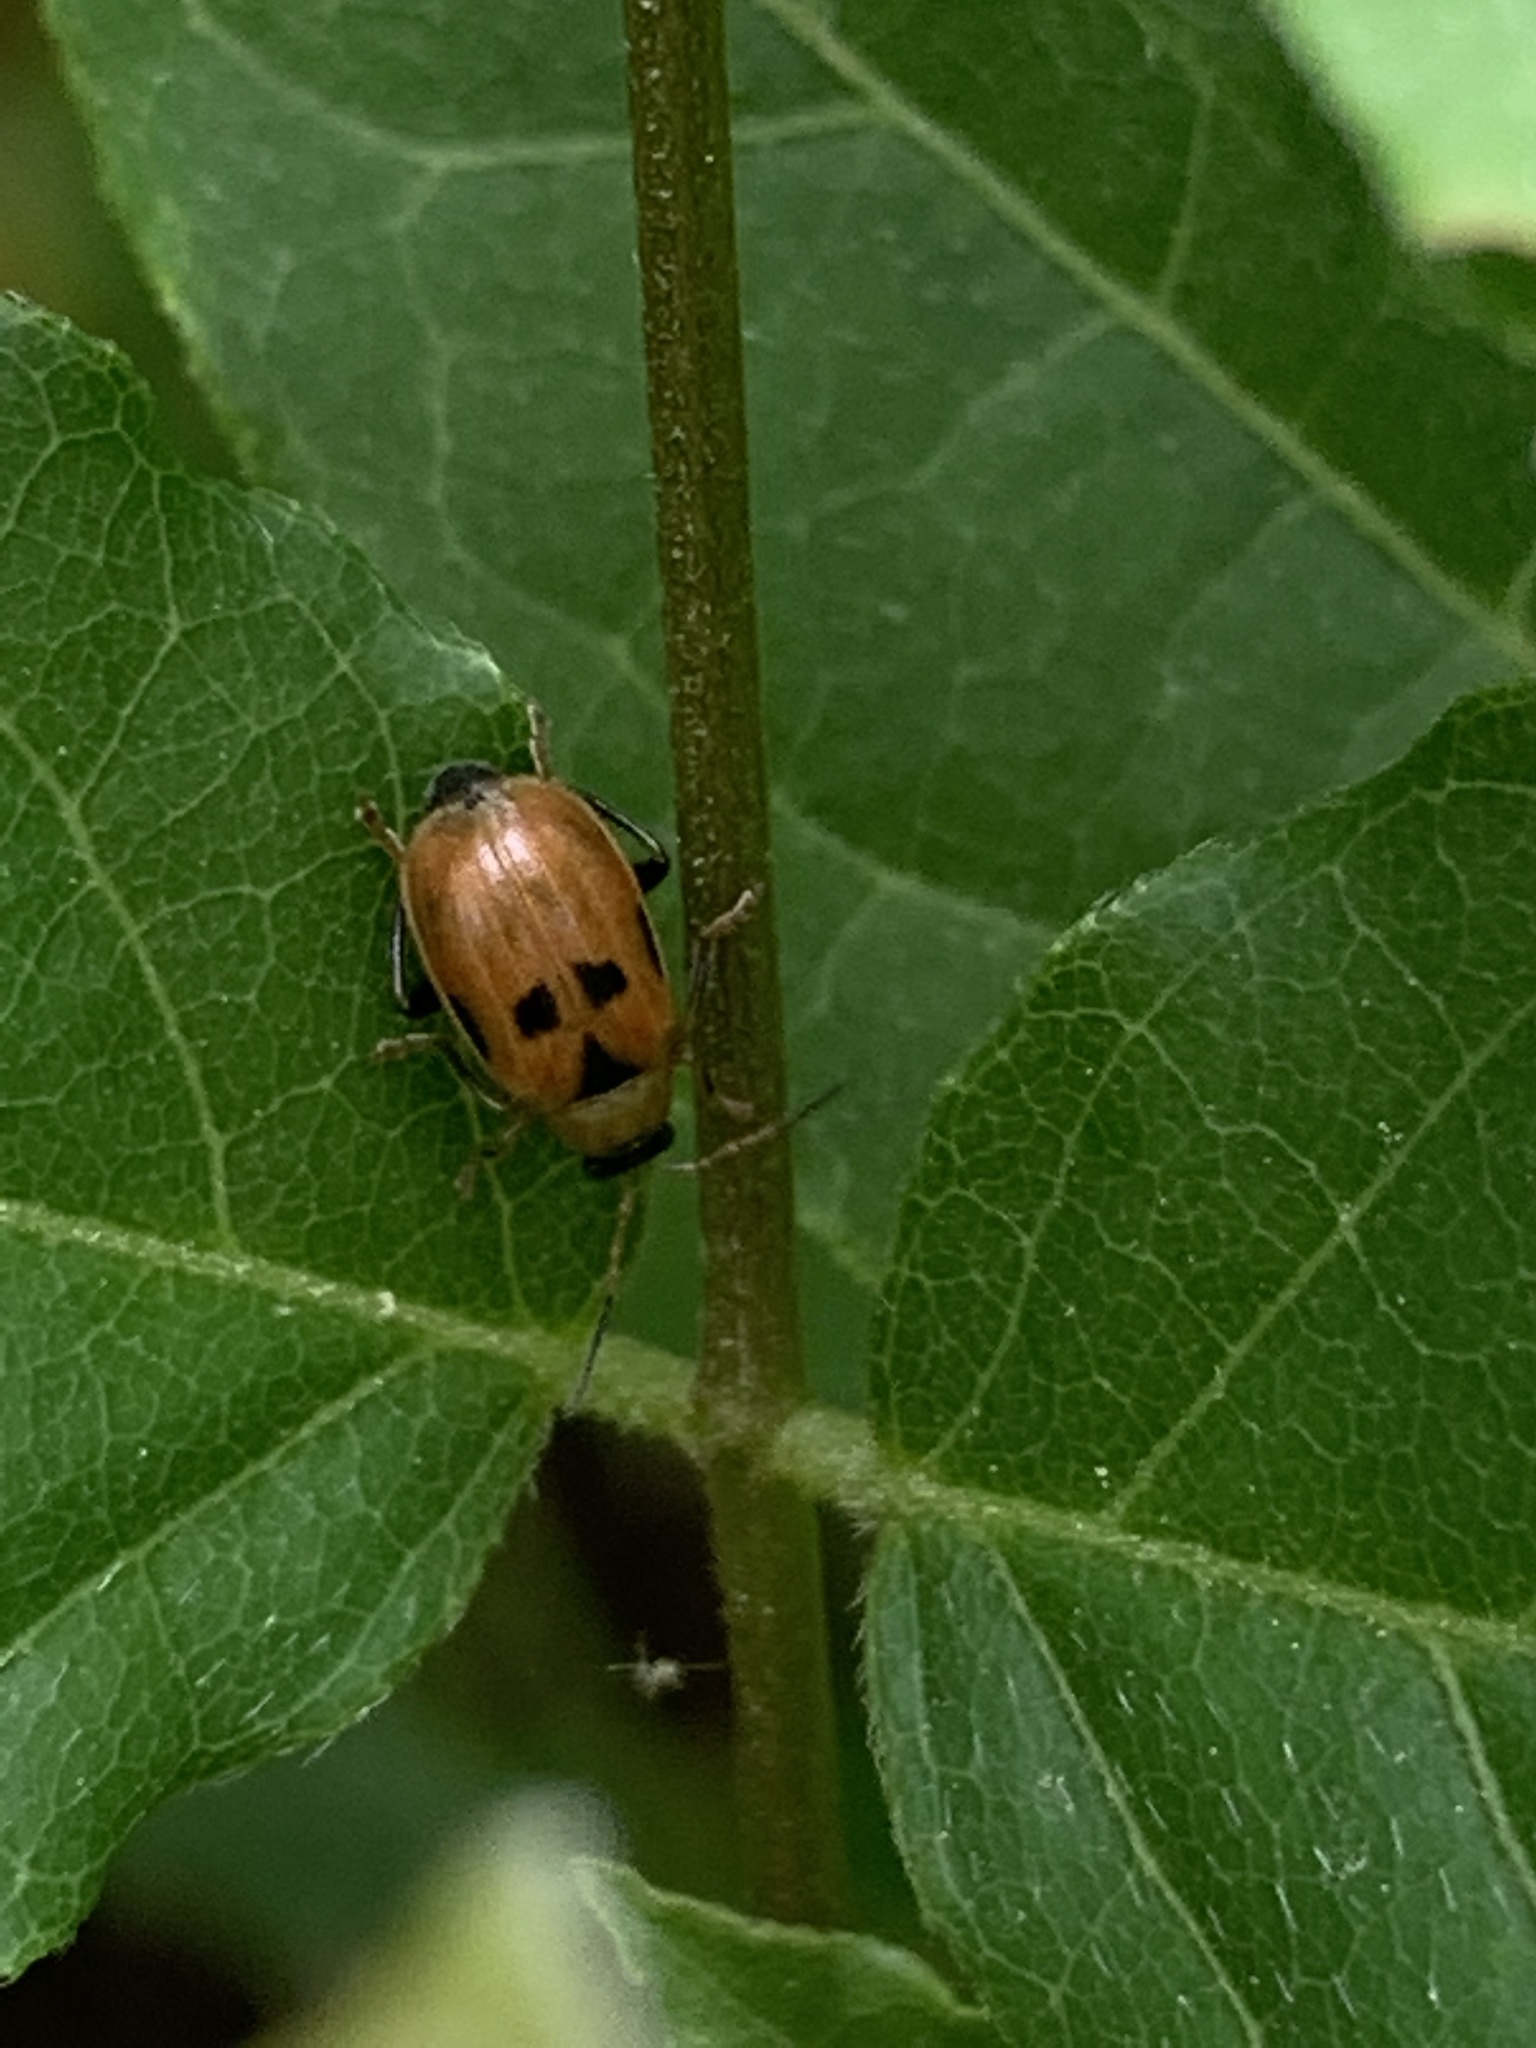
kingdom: Animalia
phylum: Arthropoda
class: Insecta
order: Coleoptera
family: Chrysomelidae
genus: Cerotoma
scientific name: Cerotoma trifurcata
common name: Bean leaf beetle
